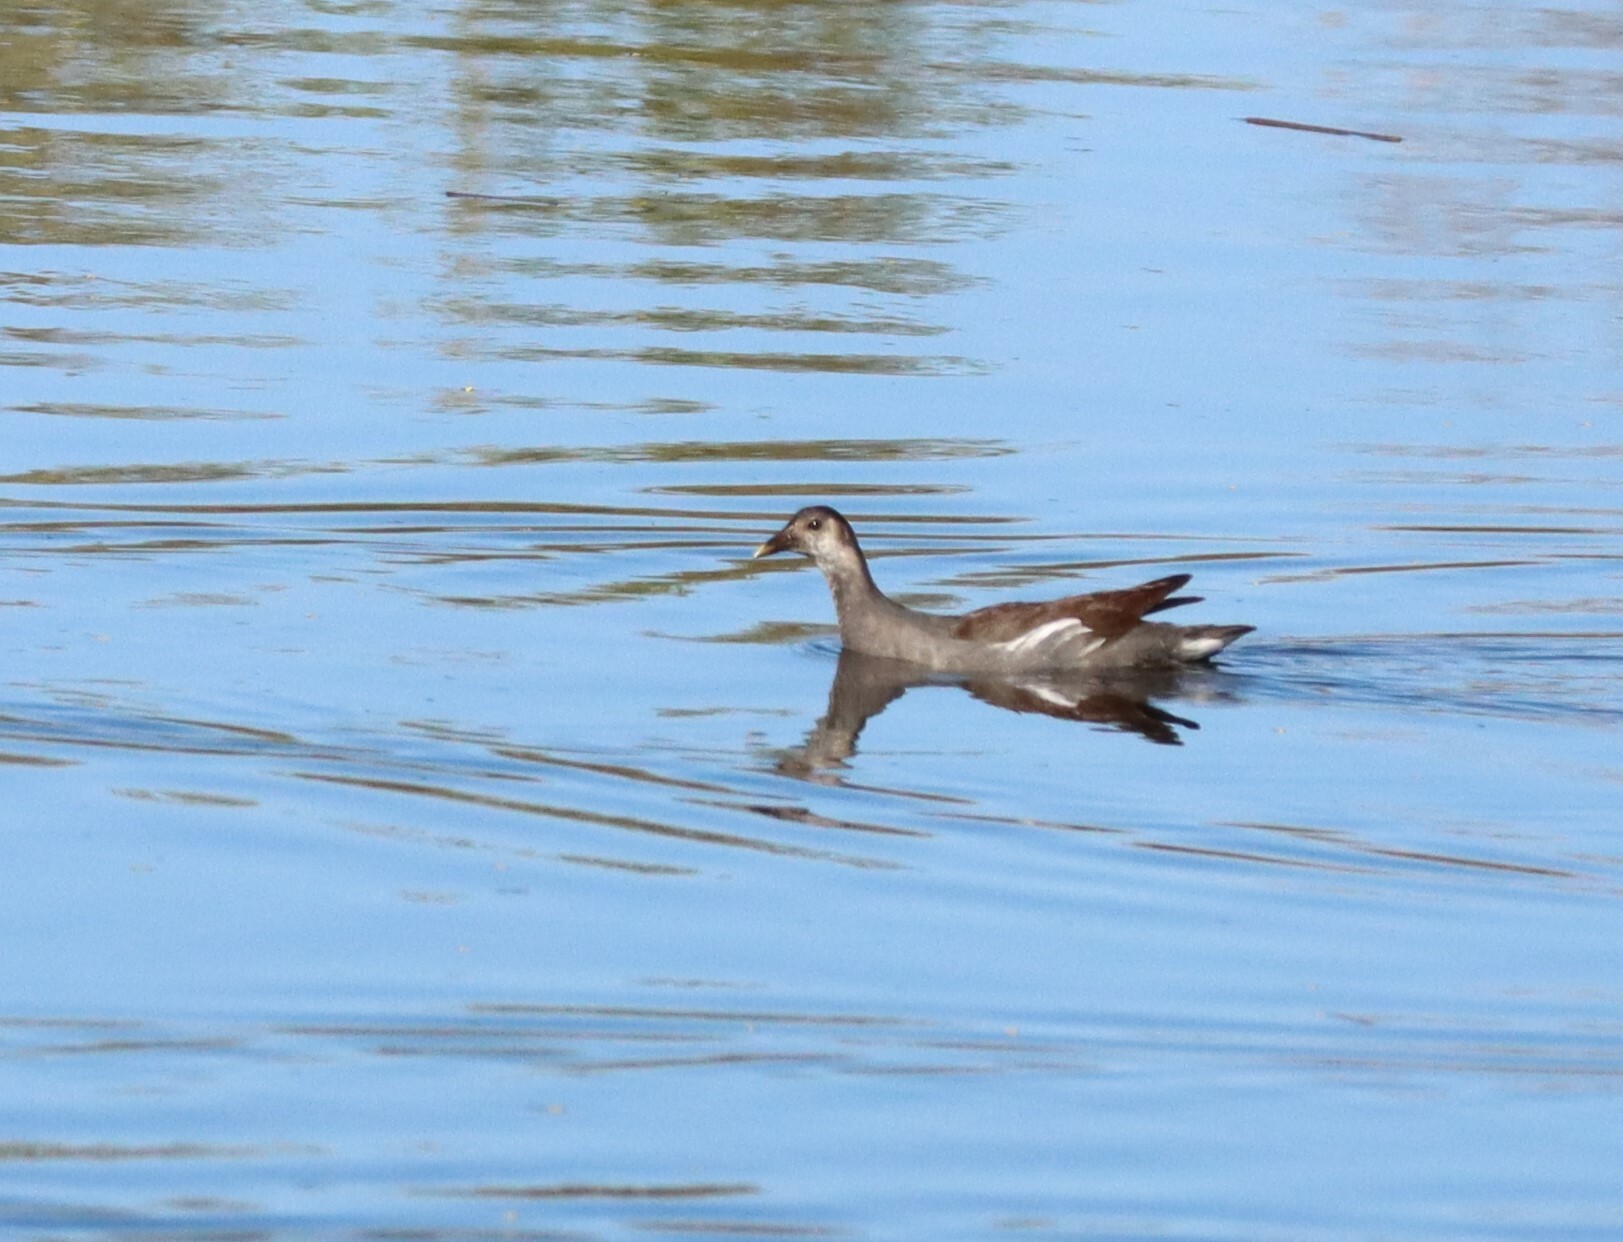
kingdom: Animalia
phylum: Chordata
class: Aves
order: Gruiformes
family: Rallidae
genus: Gallinula
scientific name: Gallinula chloropus
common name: Common moorhen
